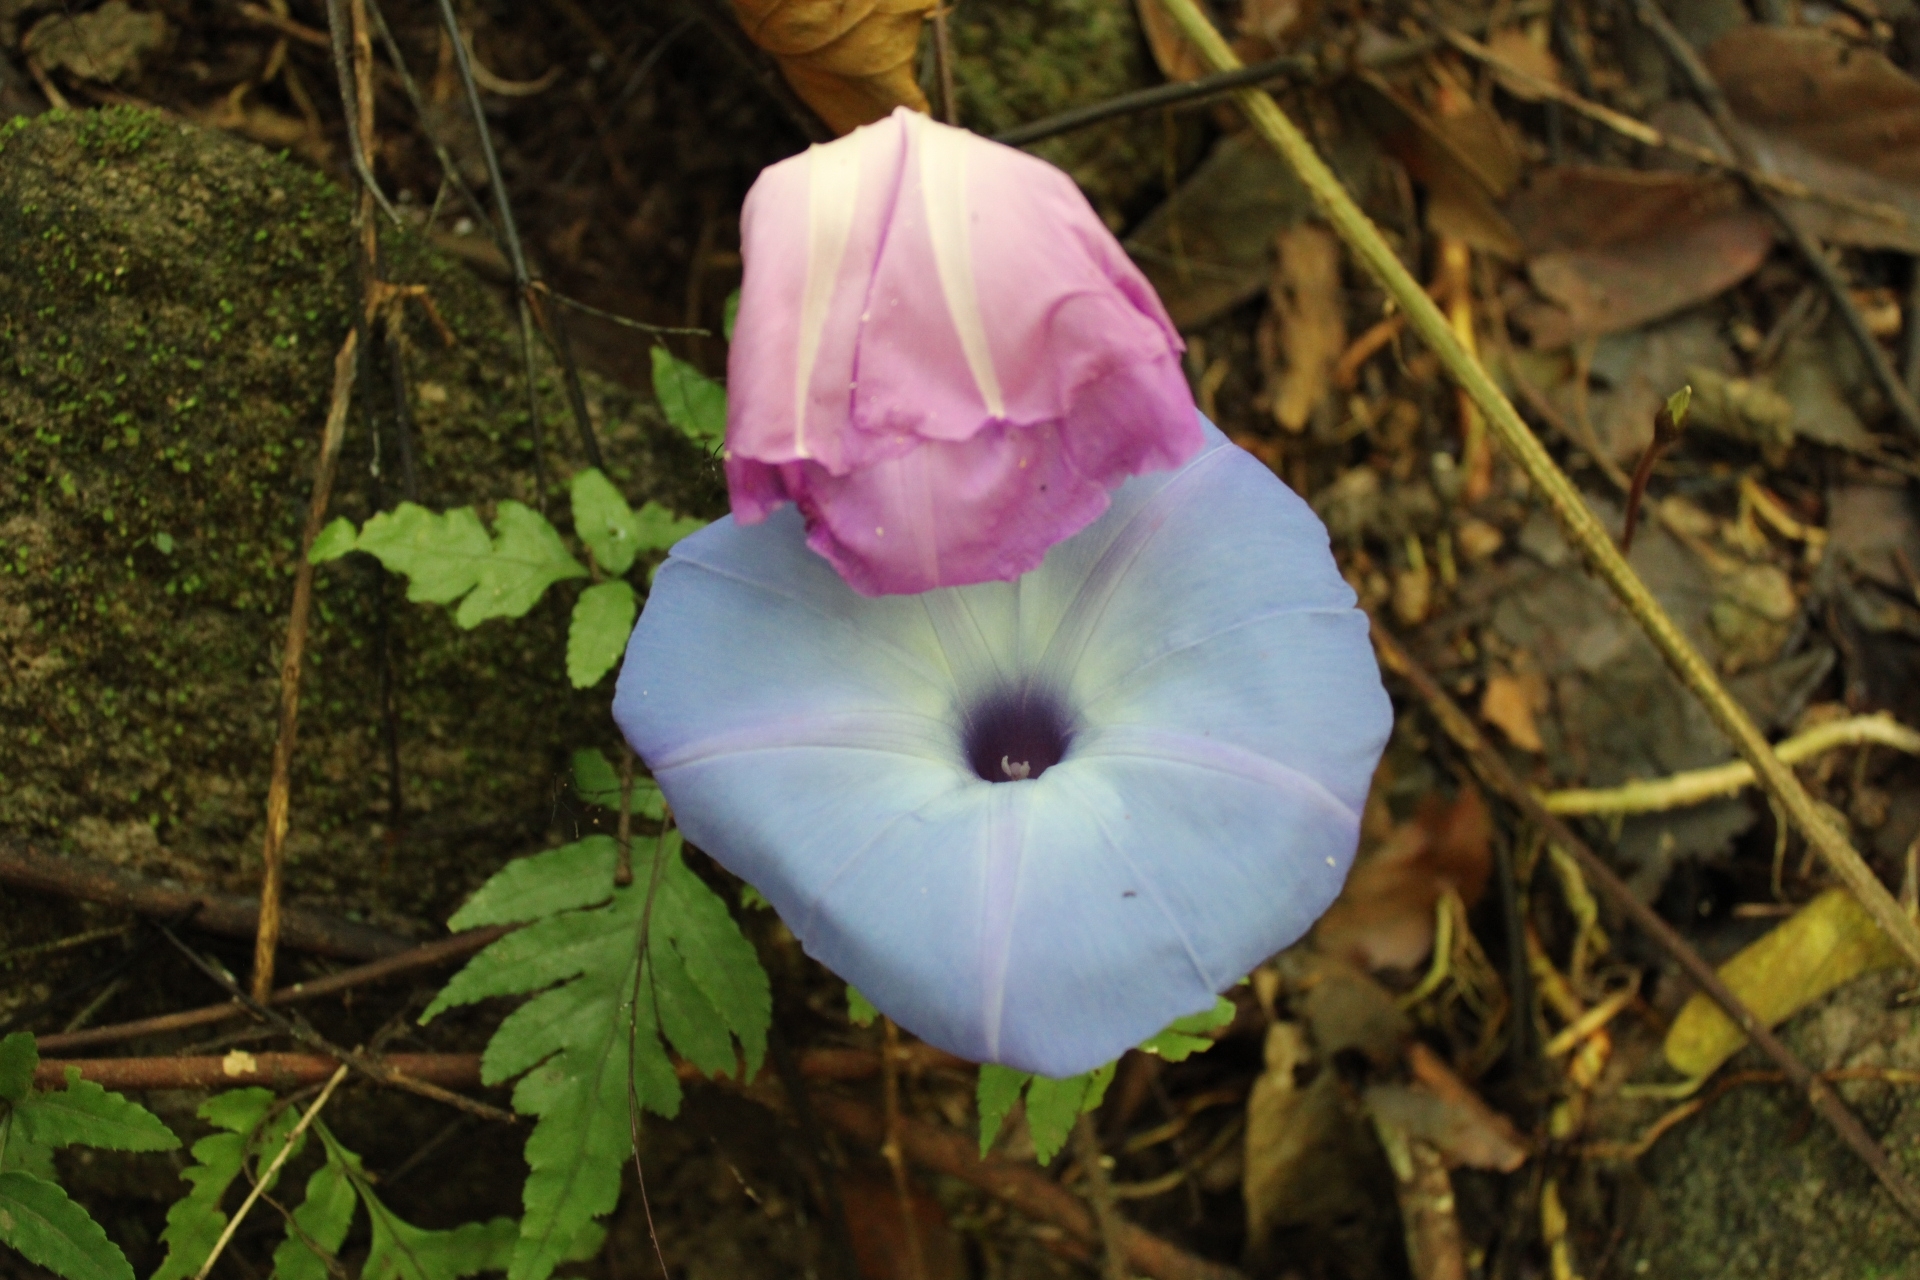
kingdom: Plantae
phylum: Tracheophyta
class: Magnoliopsida
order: Solanales
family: Convolvulaceae
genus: Ipomoea
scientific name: Ipomoea regnellii
